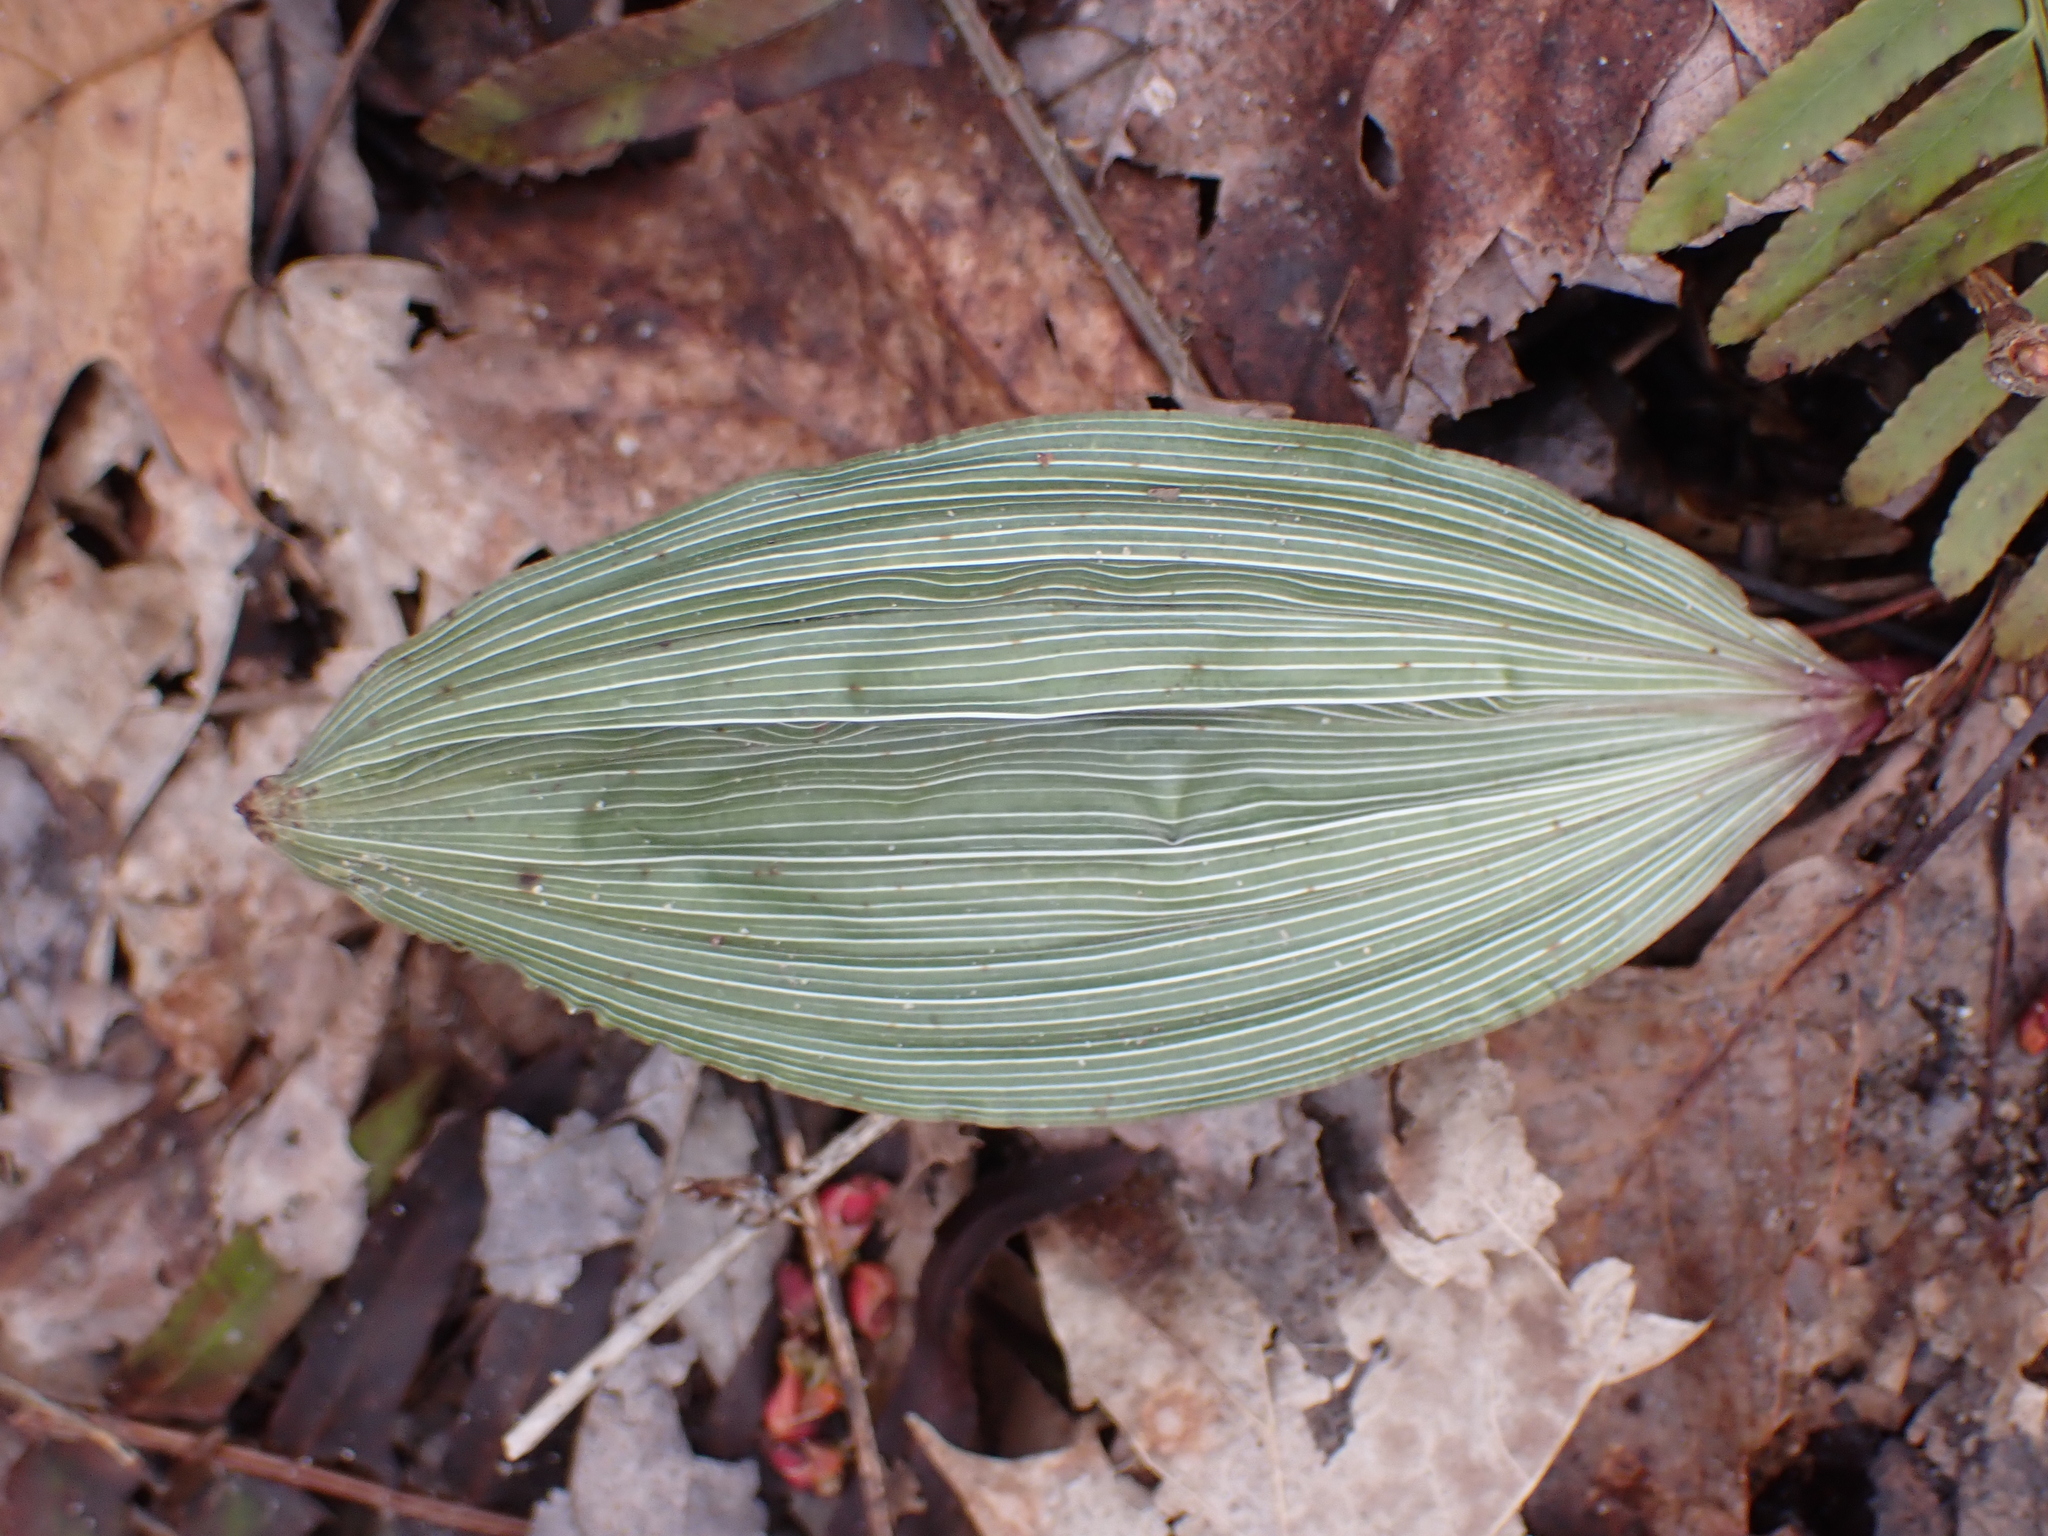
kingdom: Plantae
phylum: Tracheophyta
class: Liliopsida
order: Asparagales
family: Orchidaceae
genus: Aplectrum
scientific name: Aplectrum hyemale
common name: Adam-and-eve
